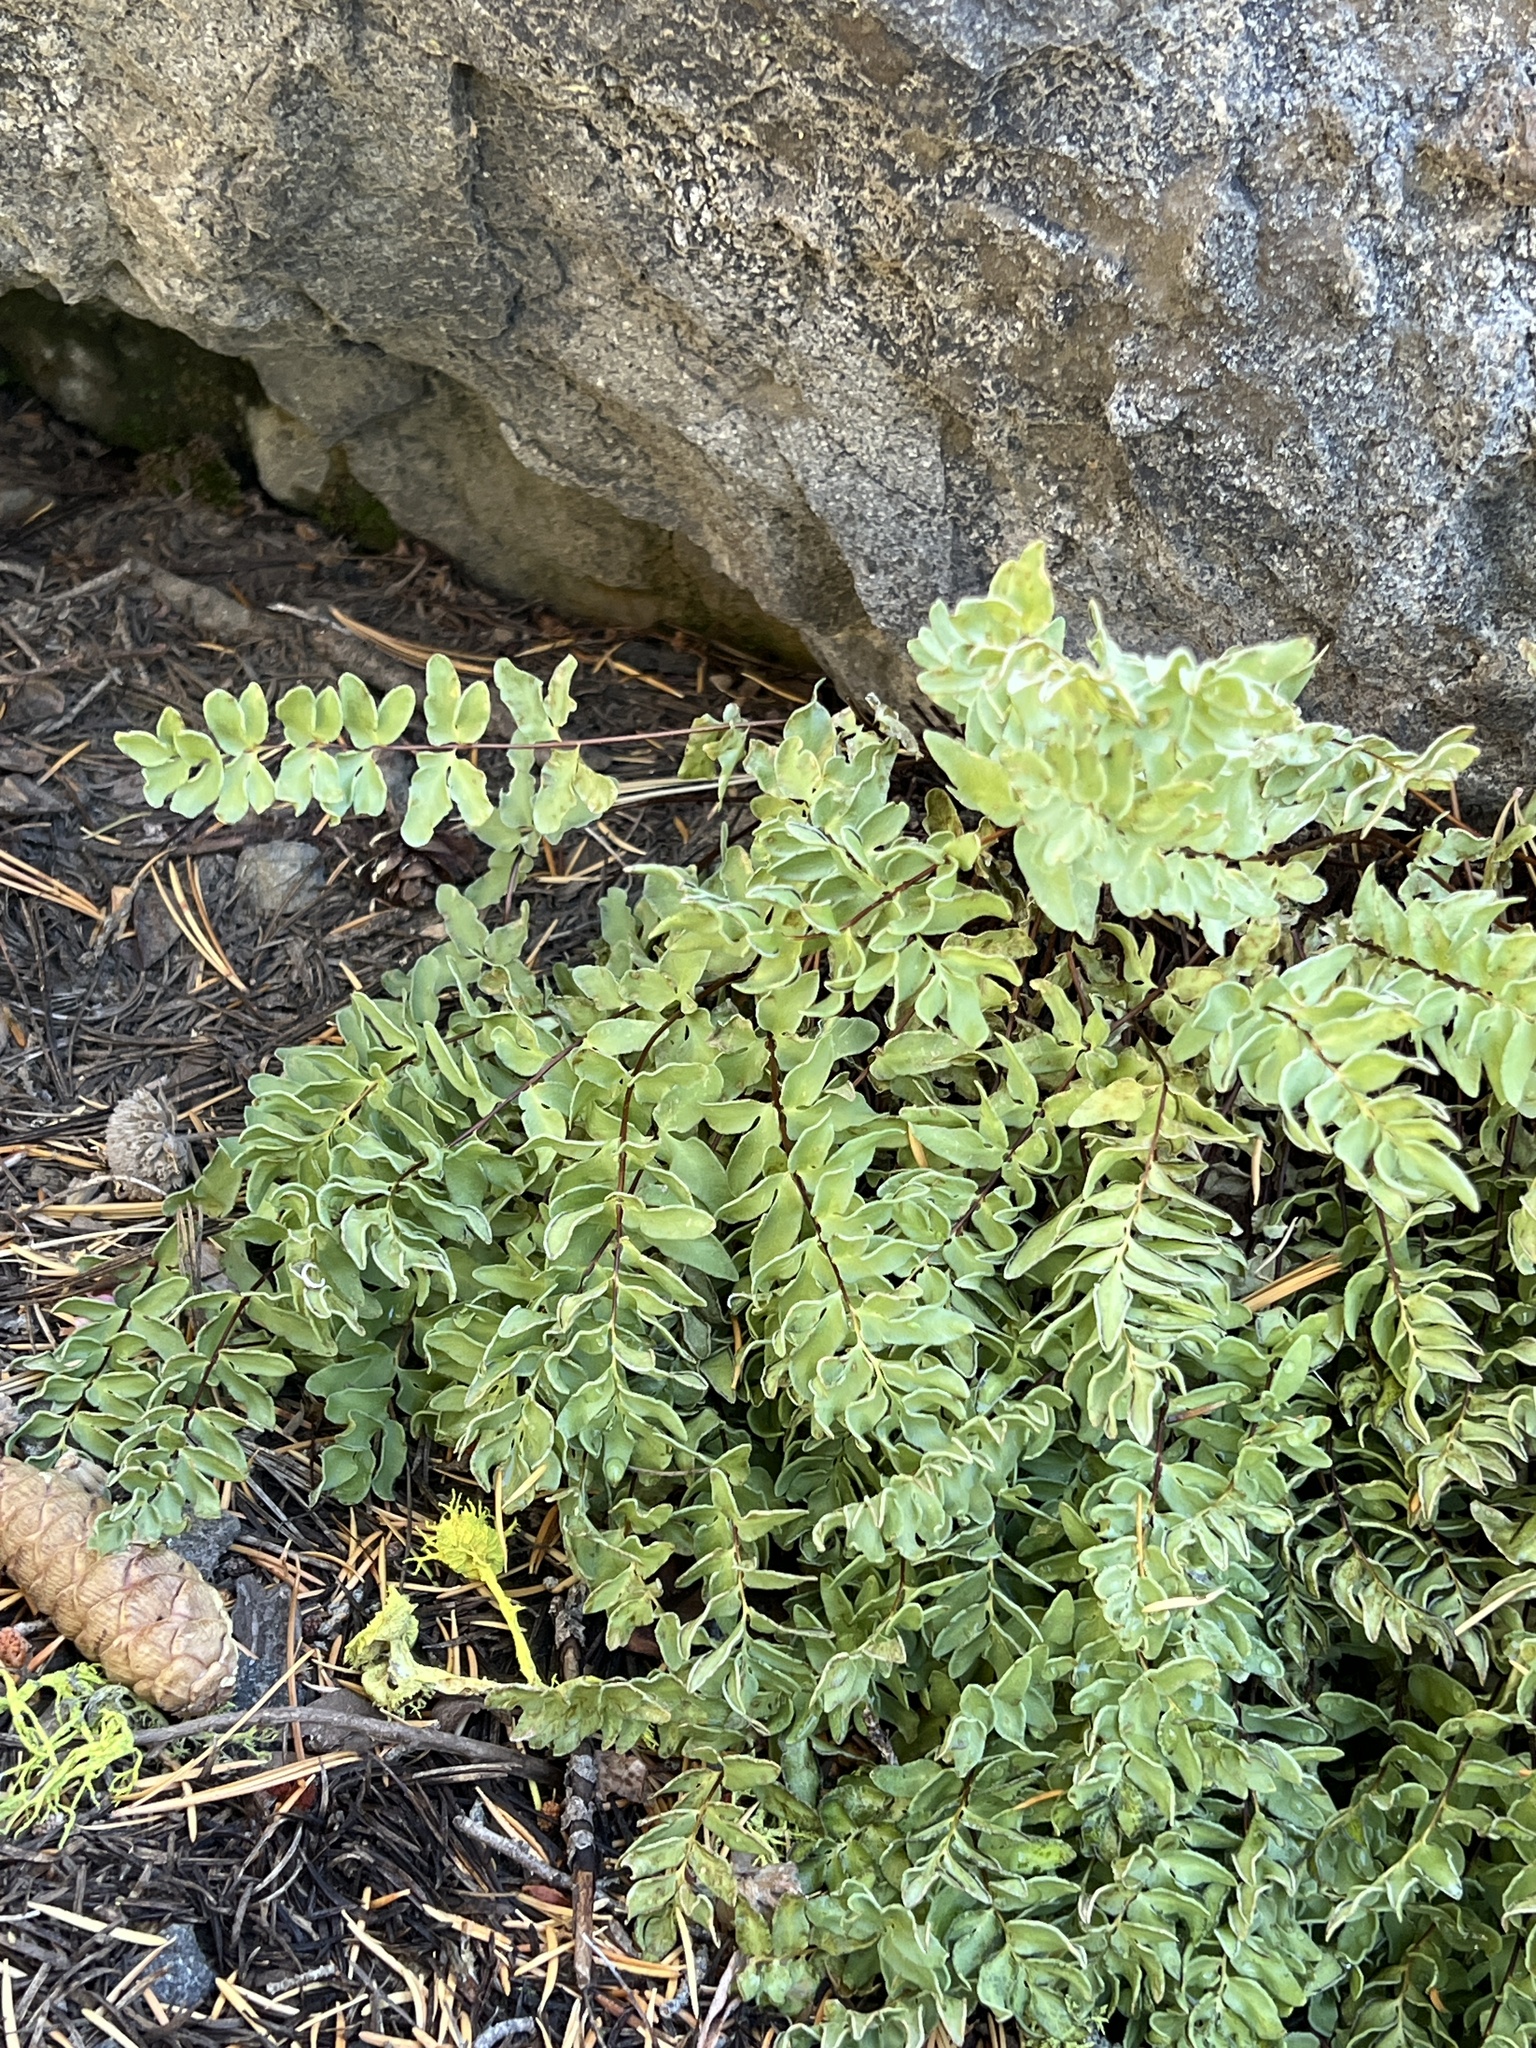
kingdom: Plantae
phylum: Tracheophyta
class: Polypodiopsida
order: Polypodiales
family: Pteridaceae
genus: Pellaea
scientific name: Pellaea breweri
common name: Brewer's cliffbrake
